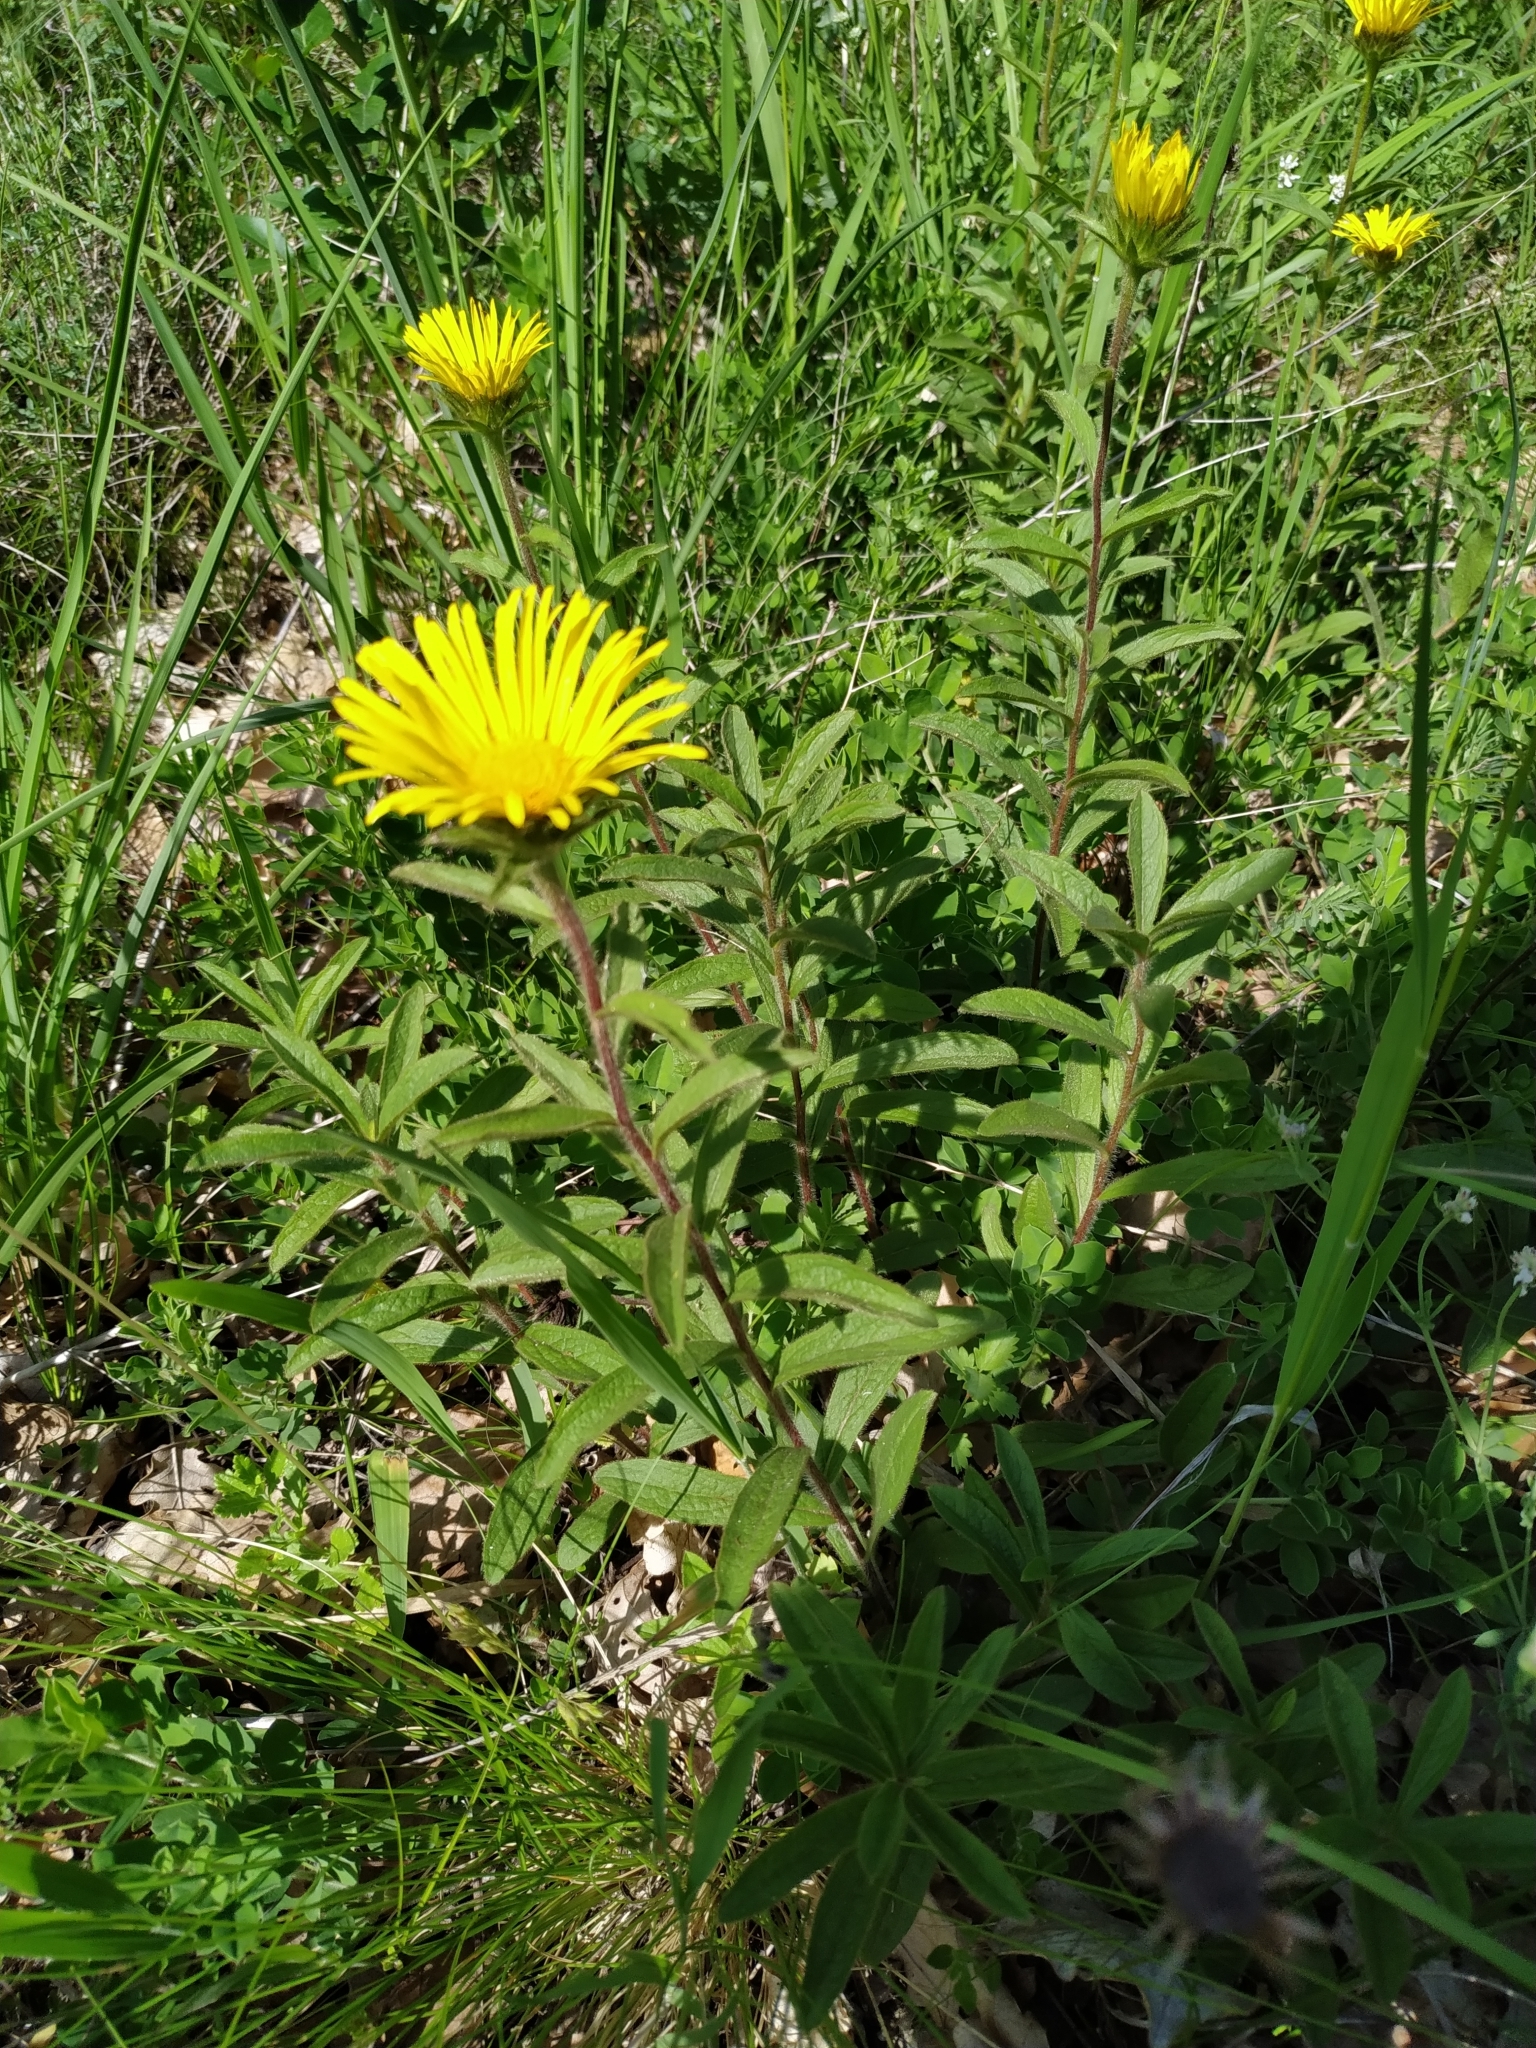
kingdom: Plantae
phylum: Tracheophyta
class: Magnoliopsida
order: Asterales
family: Asteraceae
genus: Pentanema
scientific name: Pentanema hirtum
